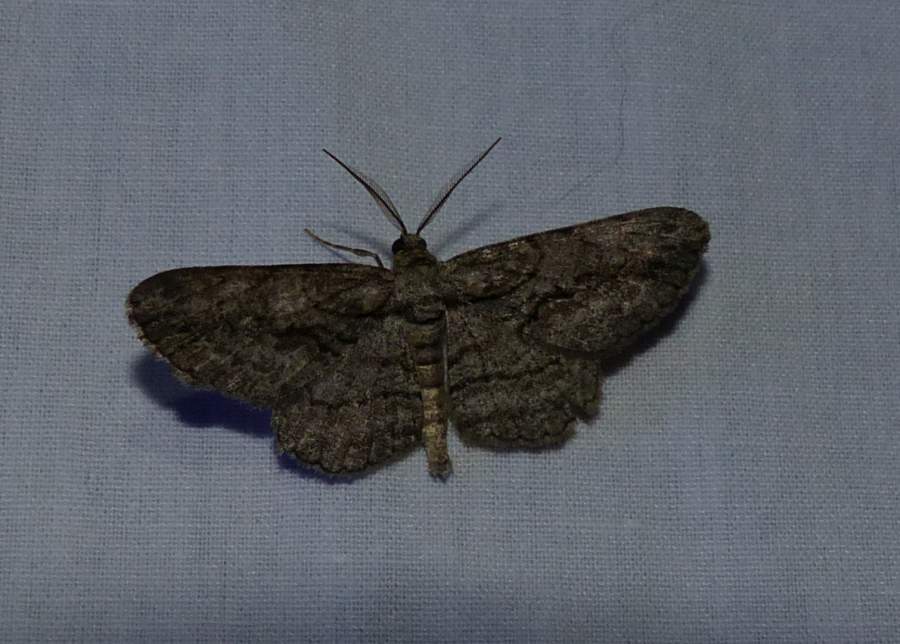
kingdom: Animalia
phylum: Arthropoda
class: Insecta
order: Lepidoptera
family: Geometridae
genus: Anavitrinella
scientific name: Anavitrinella pampinaria
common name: Common gray
